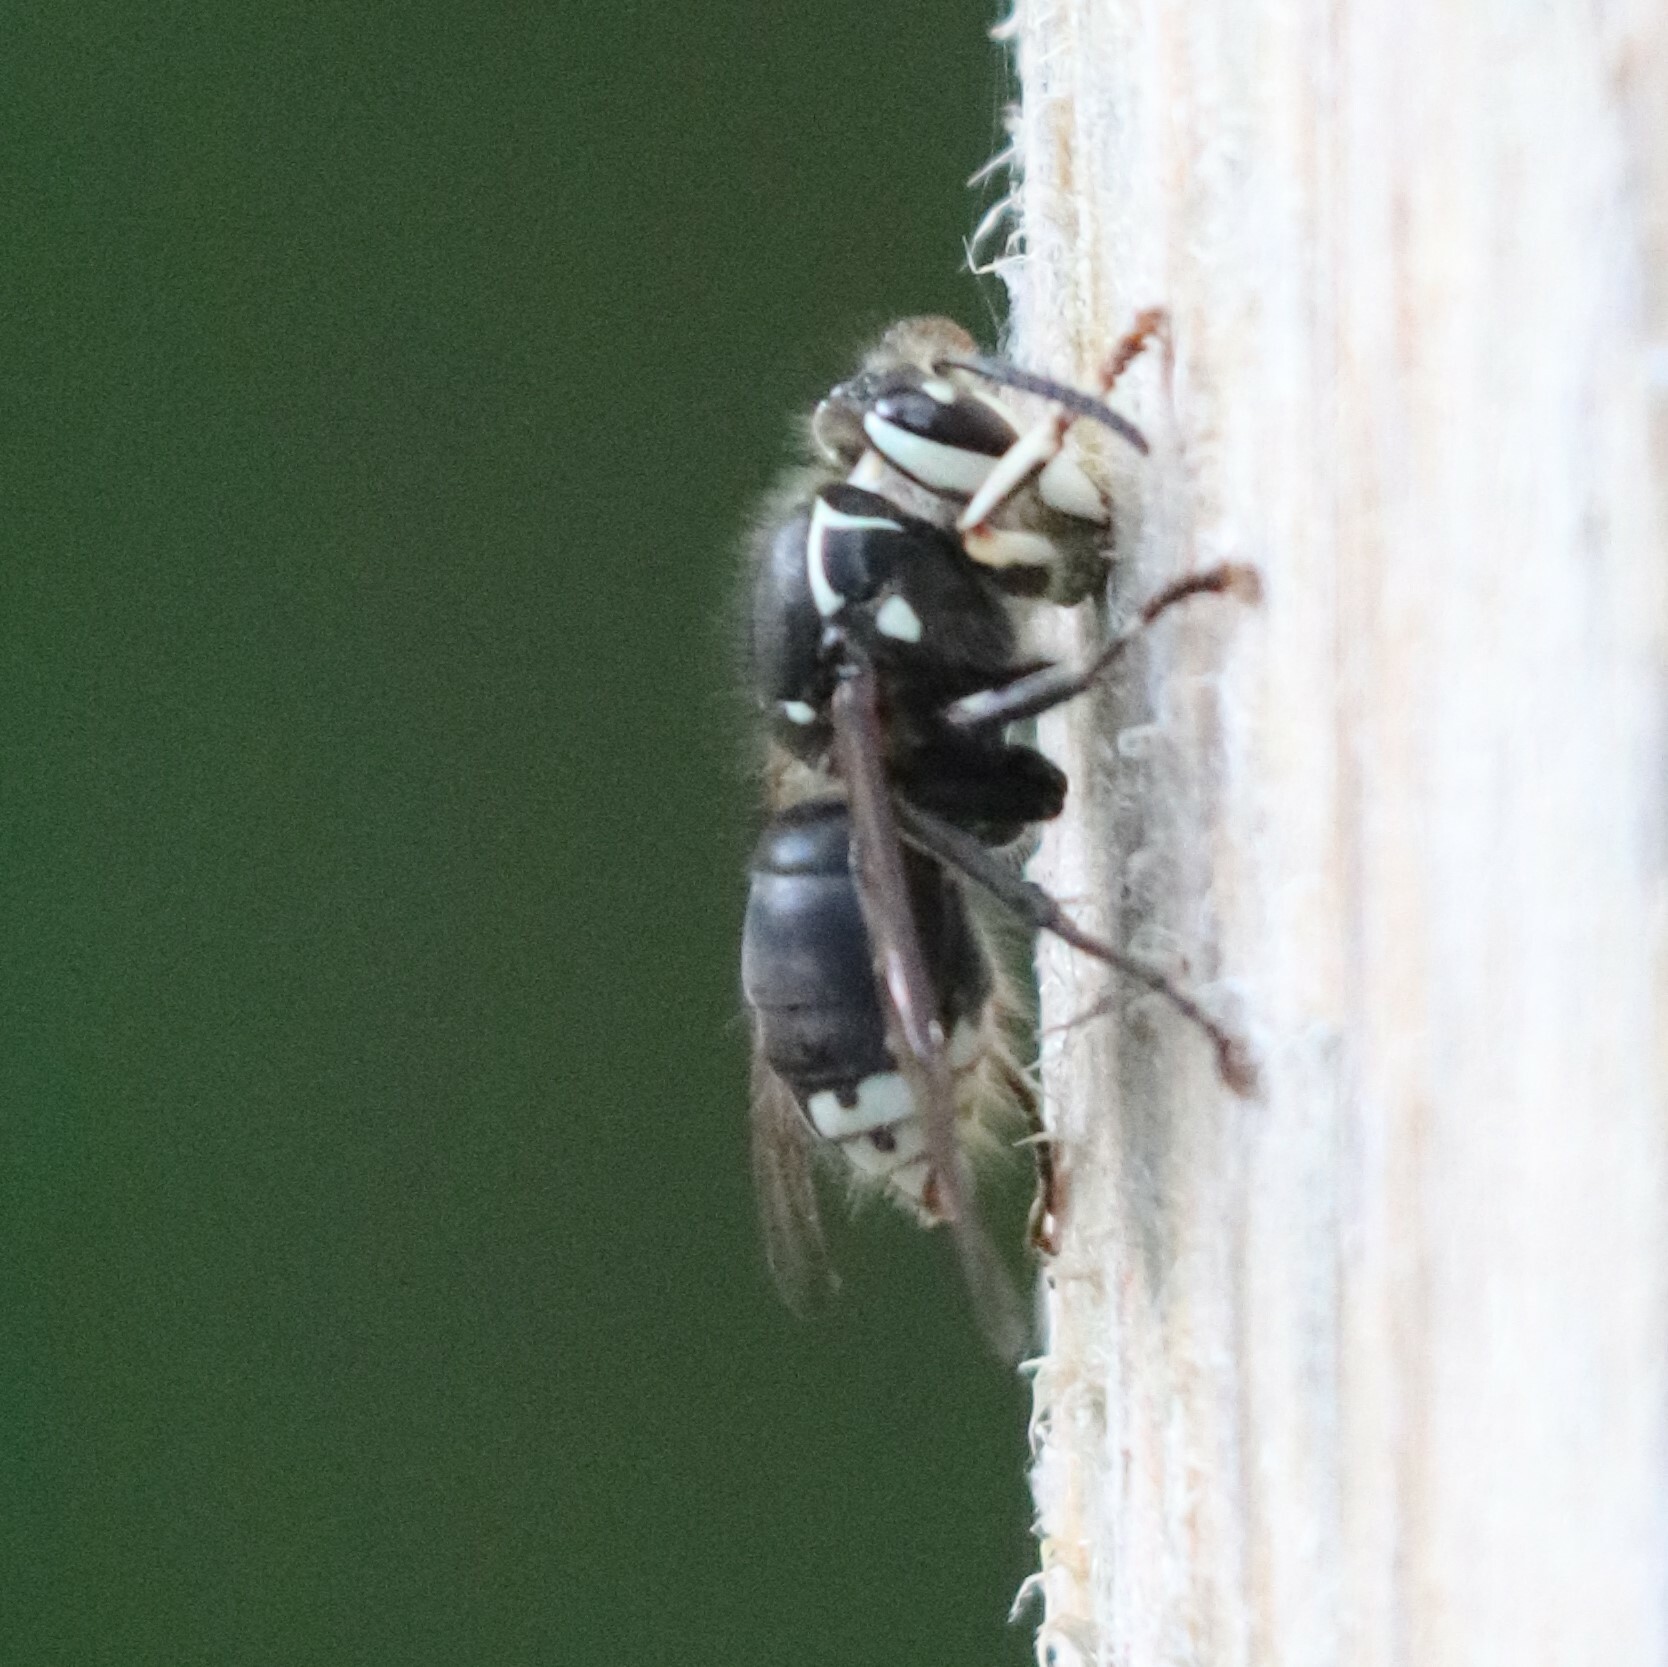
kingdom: Animalia
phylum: Arthropoda
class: Insecta
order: Hymenoptera
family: Vespidae
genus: Dolichovespula
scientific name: Dolichovespula maculata
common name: Bald-faced hornet
